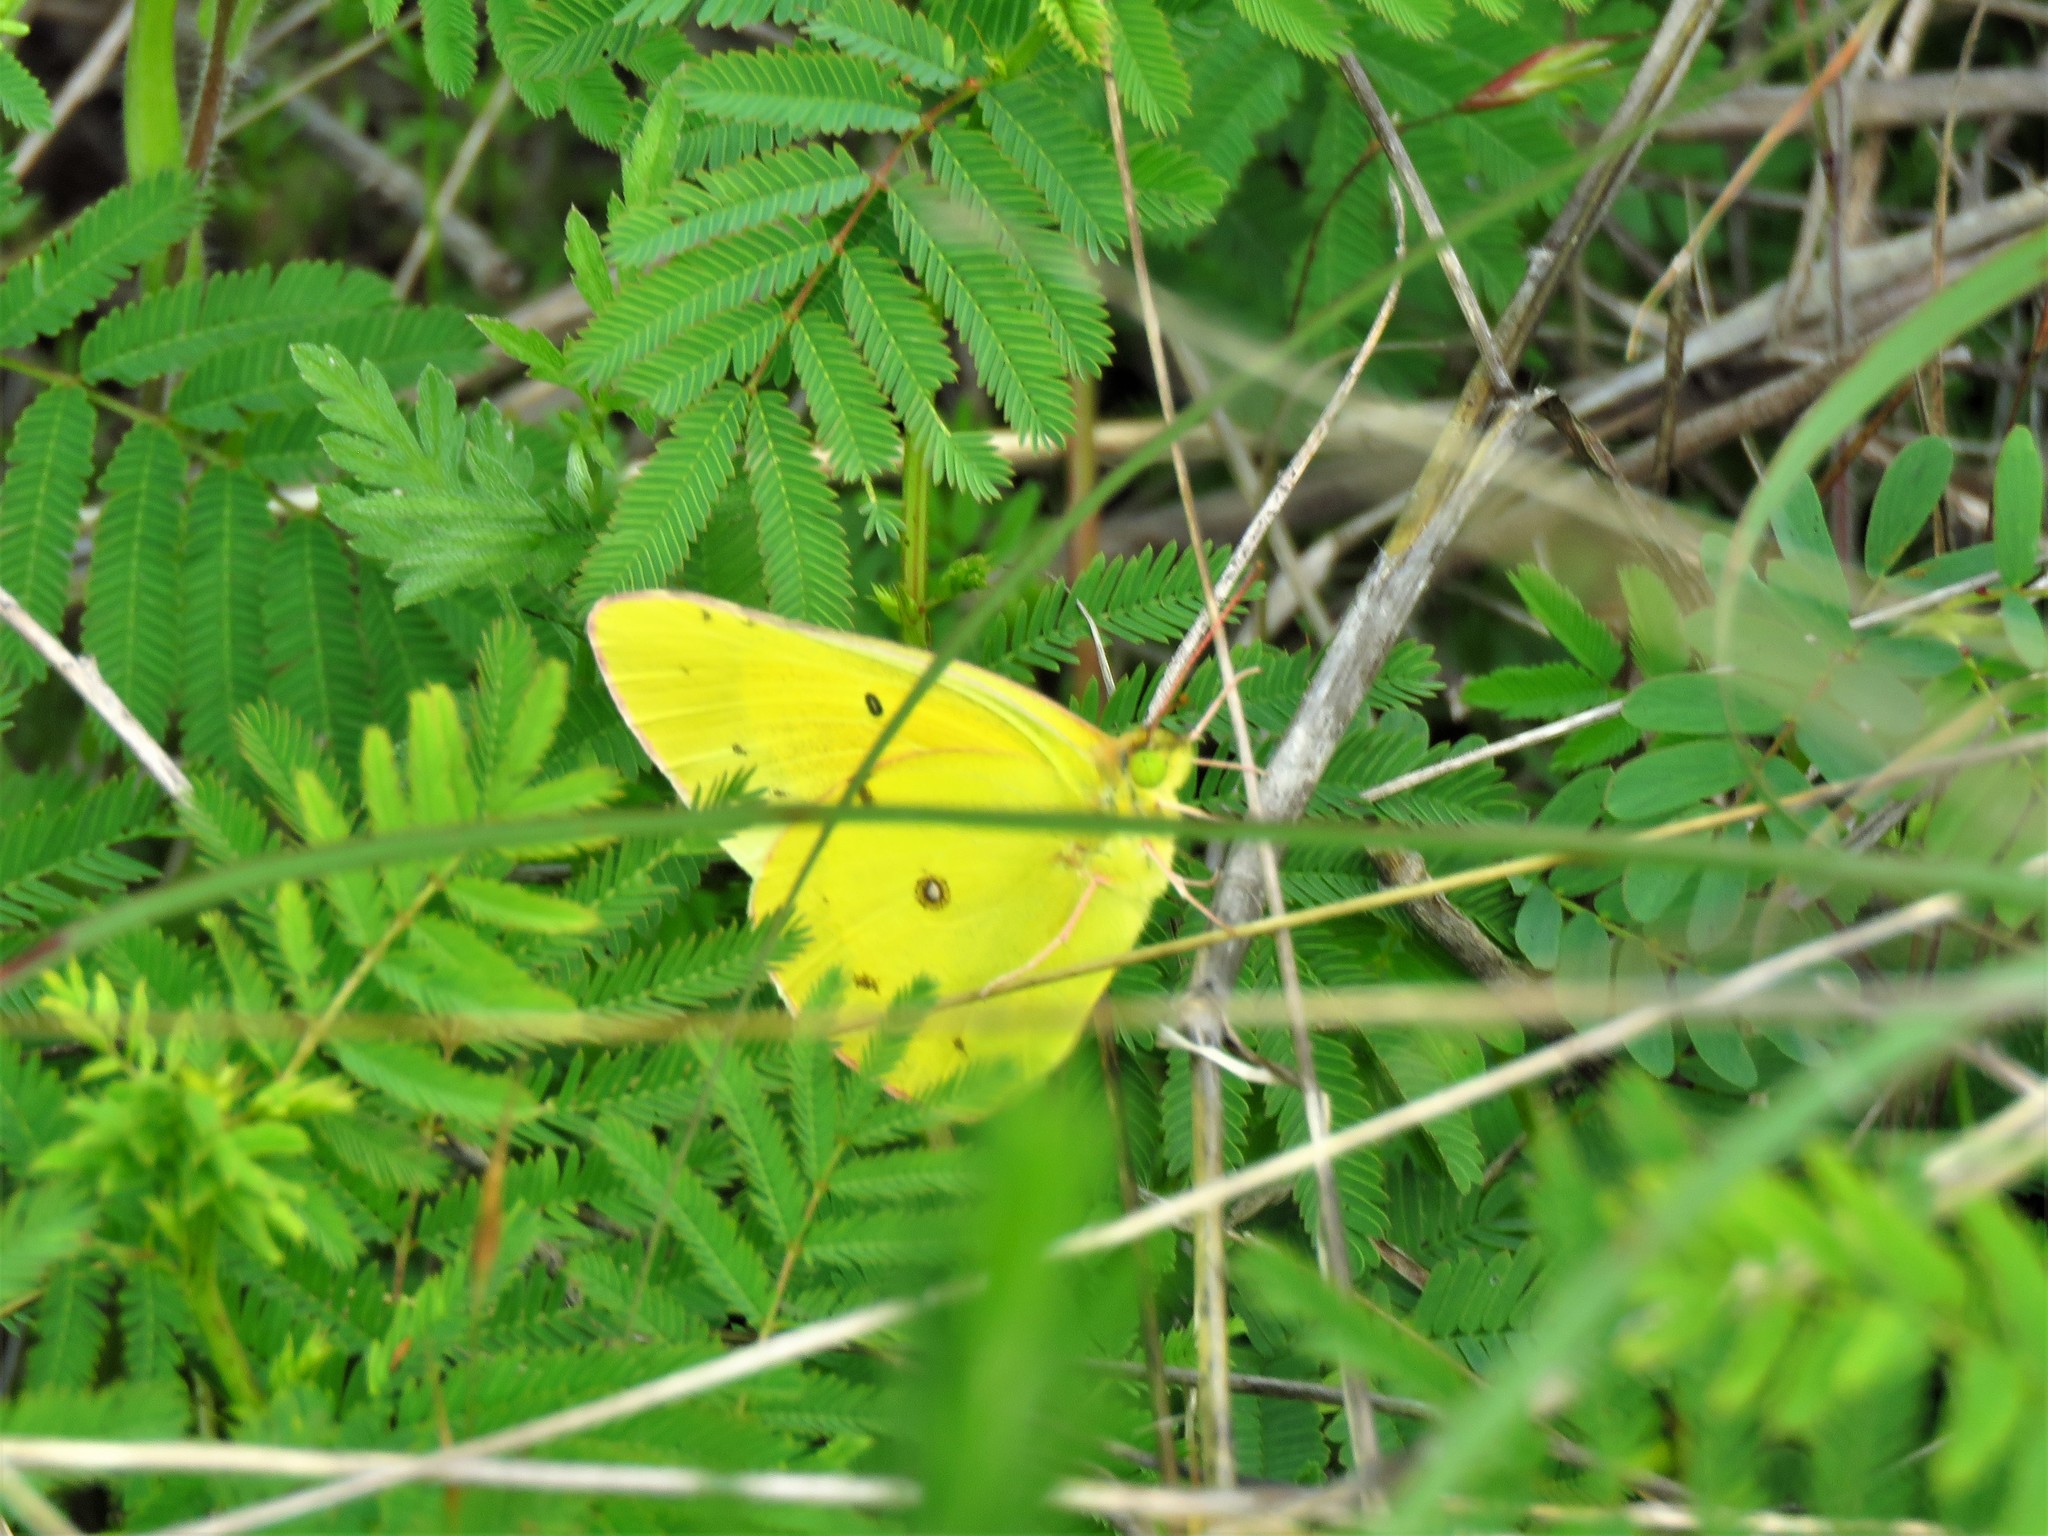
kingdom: Animalia
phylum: Arthropoda
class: Insecta
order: Lepidoptera
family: Pieridae
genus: Colias
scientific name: Colias eurytheme
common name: Alfalfa butterfly
